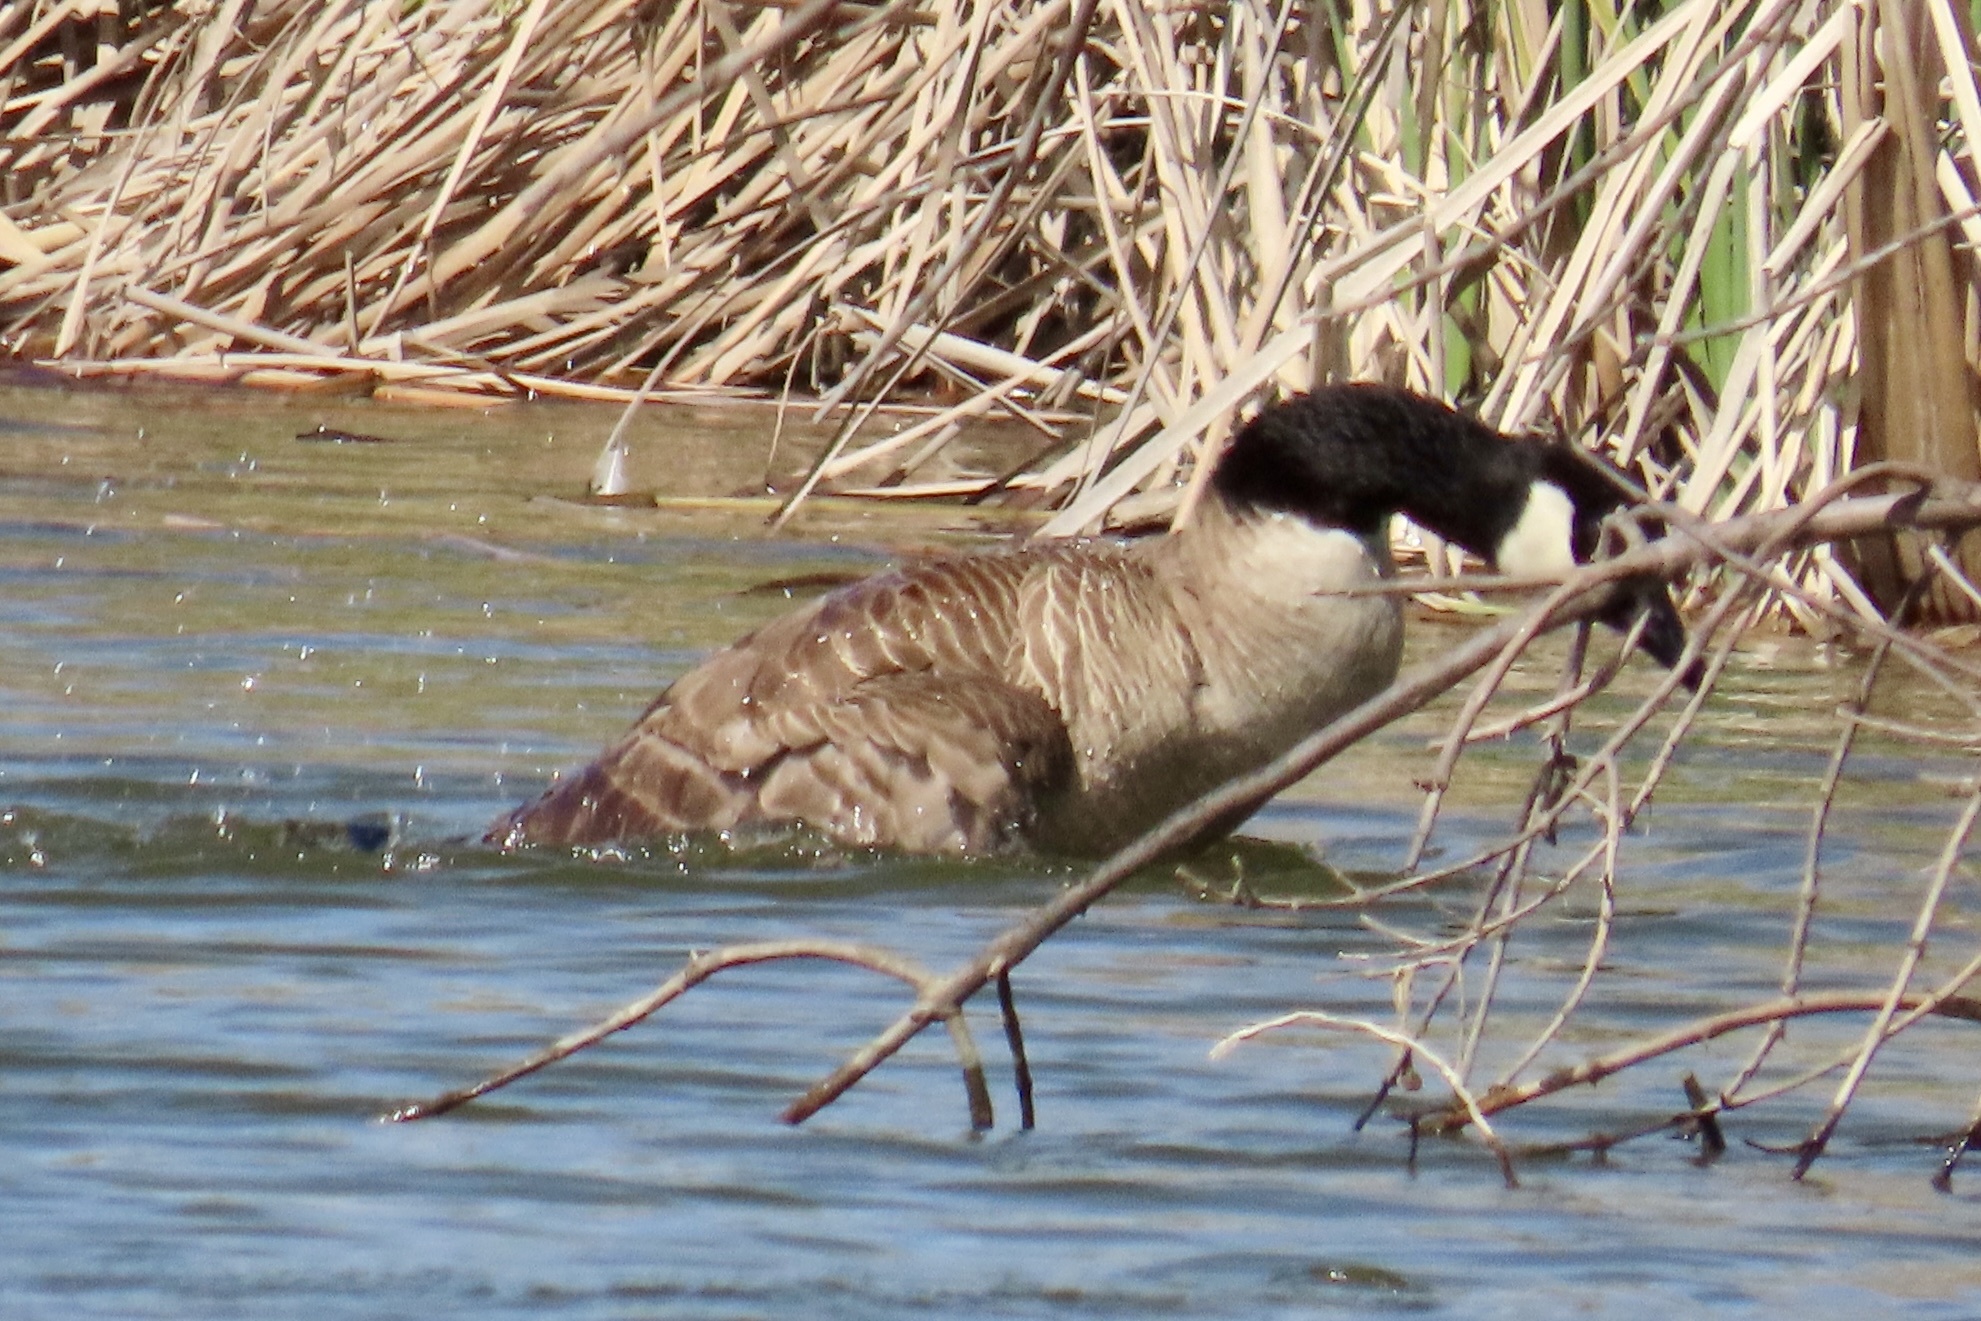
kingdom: Animalia
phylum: Chordata
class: Aves
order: Anseriformes
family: Anatidae
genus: Branta
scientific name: Branta canadensis
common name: Canada goose
